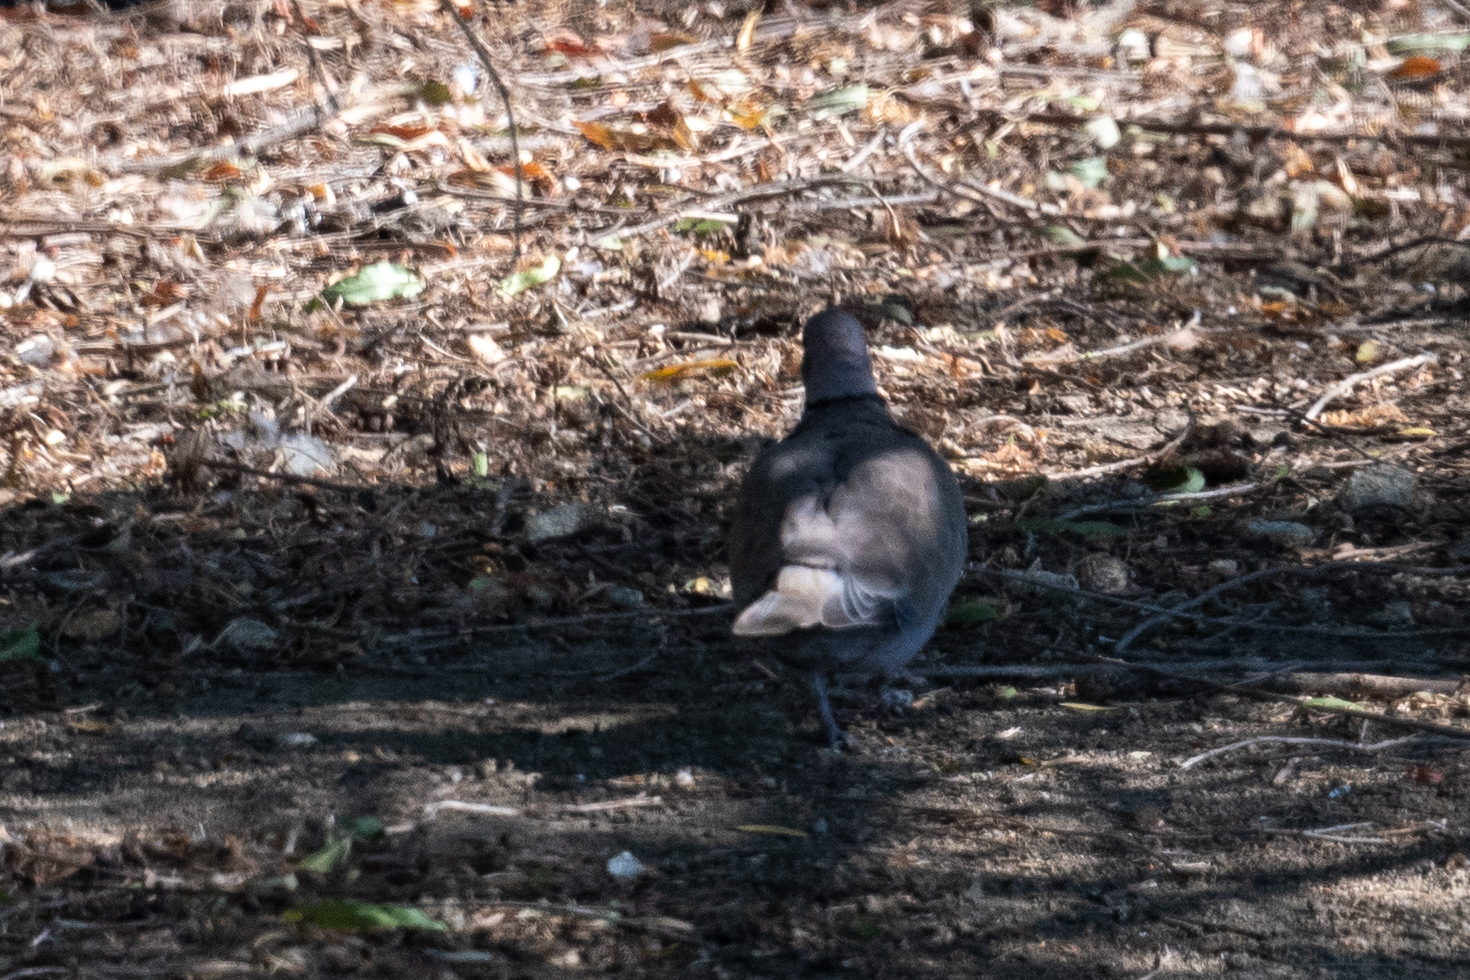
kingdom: Animalia
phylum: Chordata
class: Aves
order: Columbiformes
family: Columbidae
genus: Streptopelia
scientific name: Streptopelia decaocto
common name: Eurasian collared dove
